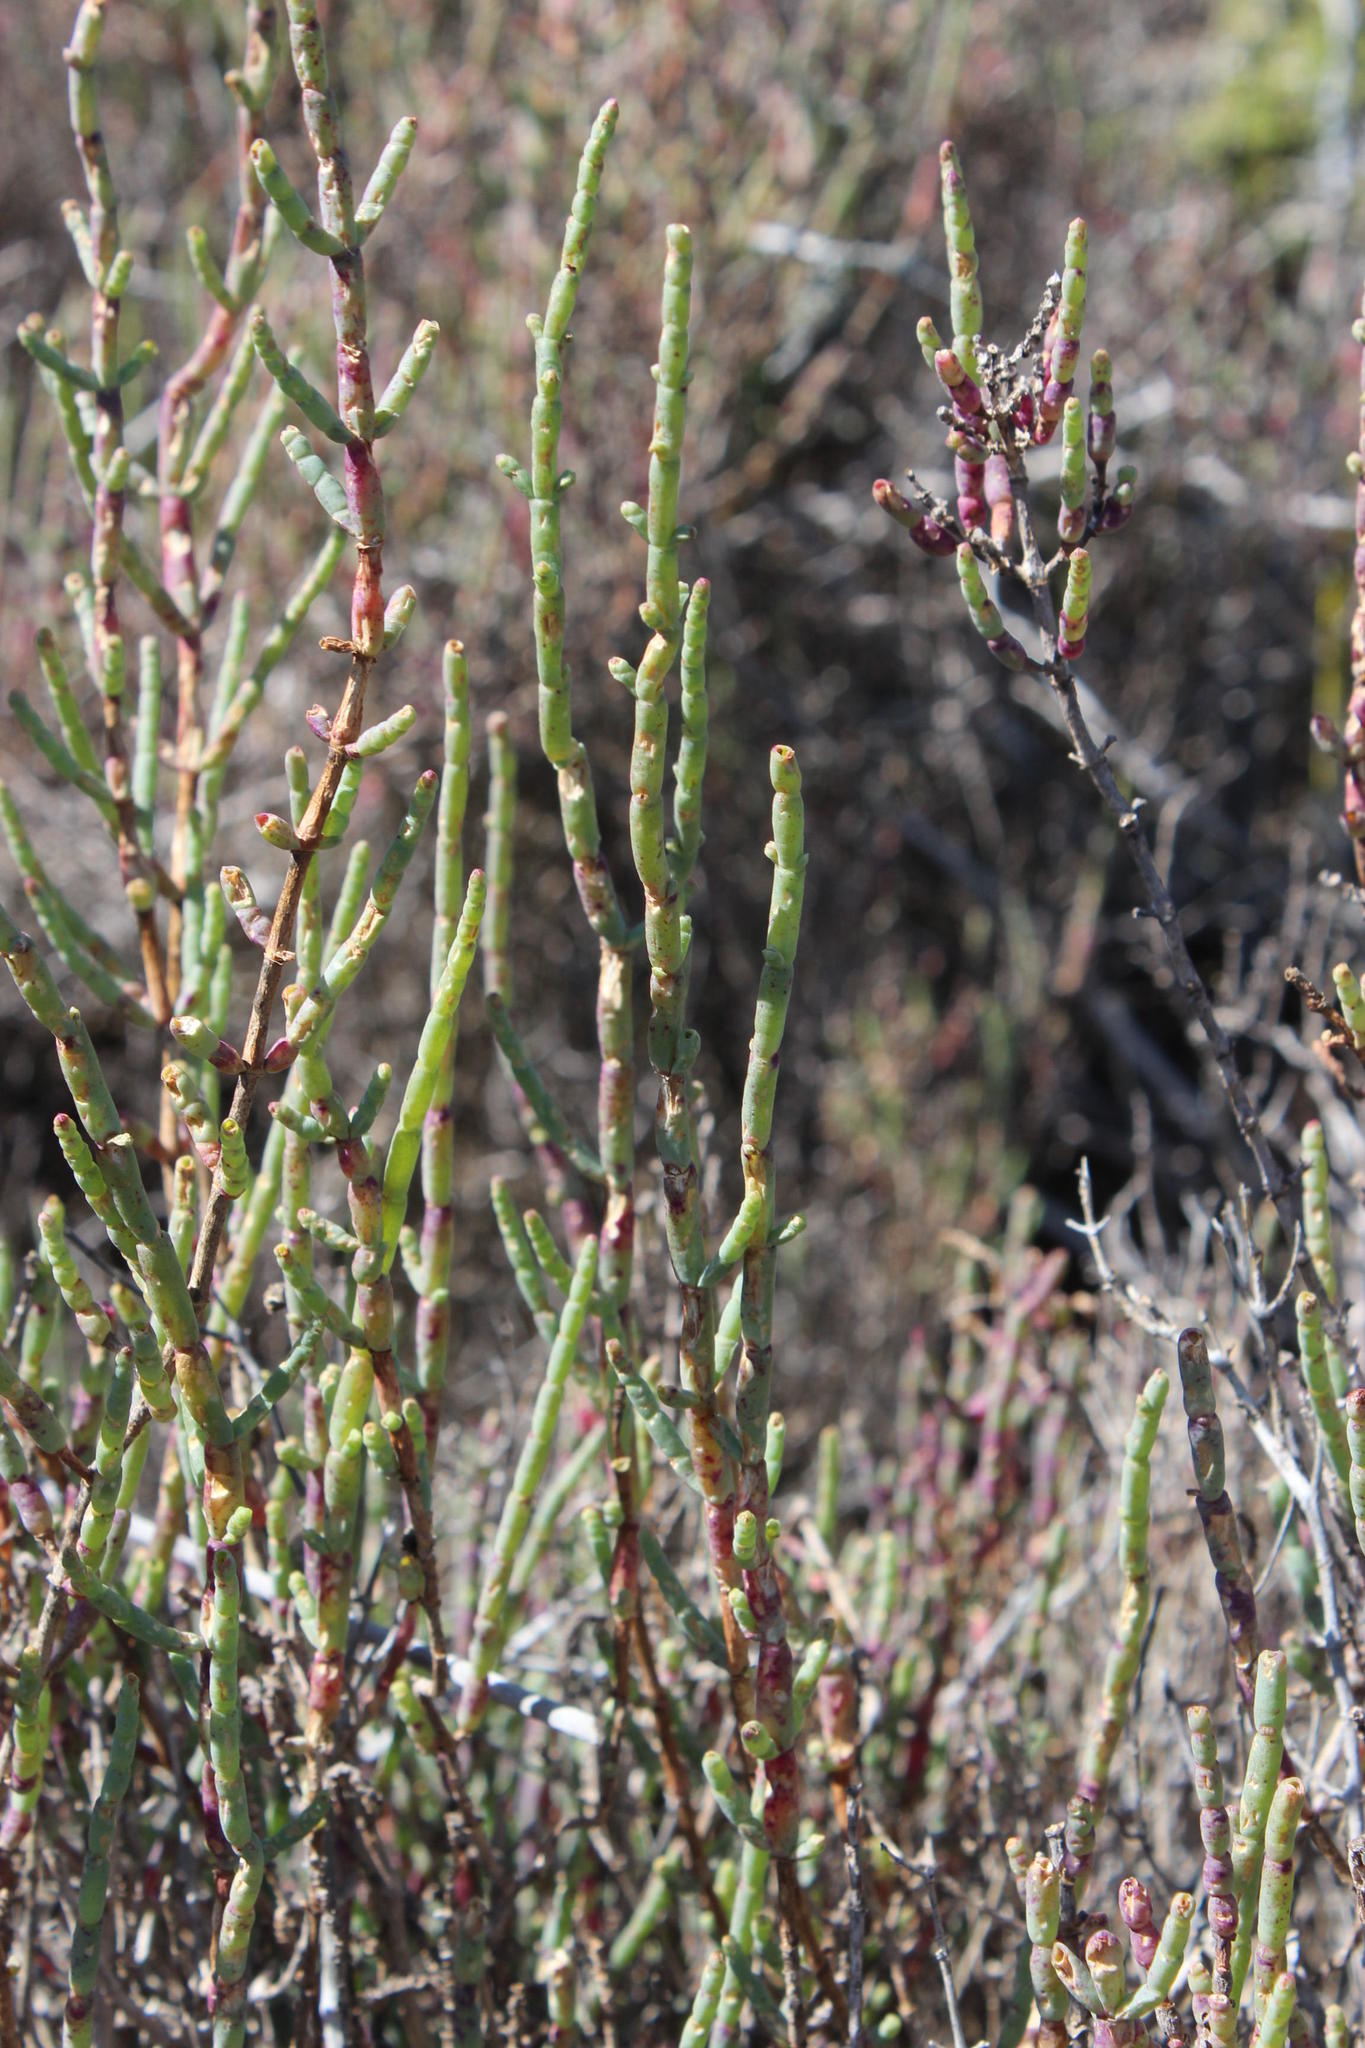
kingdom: Plantae
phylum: Tracheophyta
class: Magnoliopsida
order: Caryophyllales
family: Amaranthaceae
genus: Salicornia
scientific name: Salicornia pillansii
